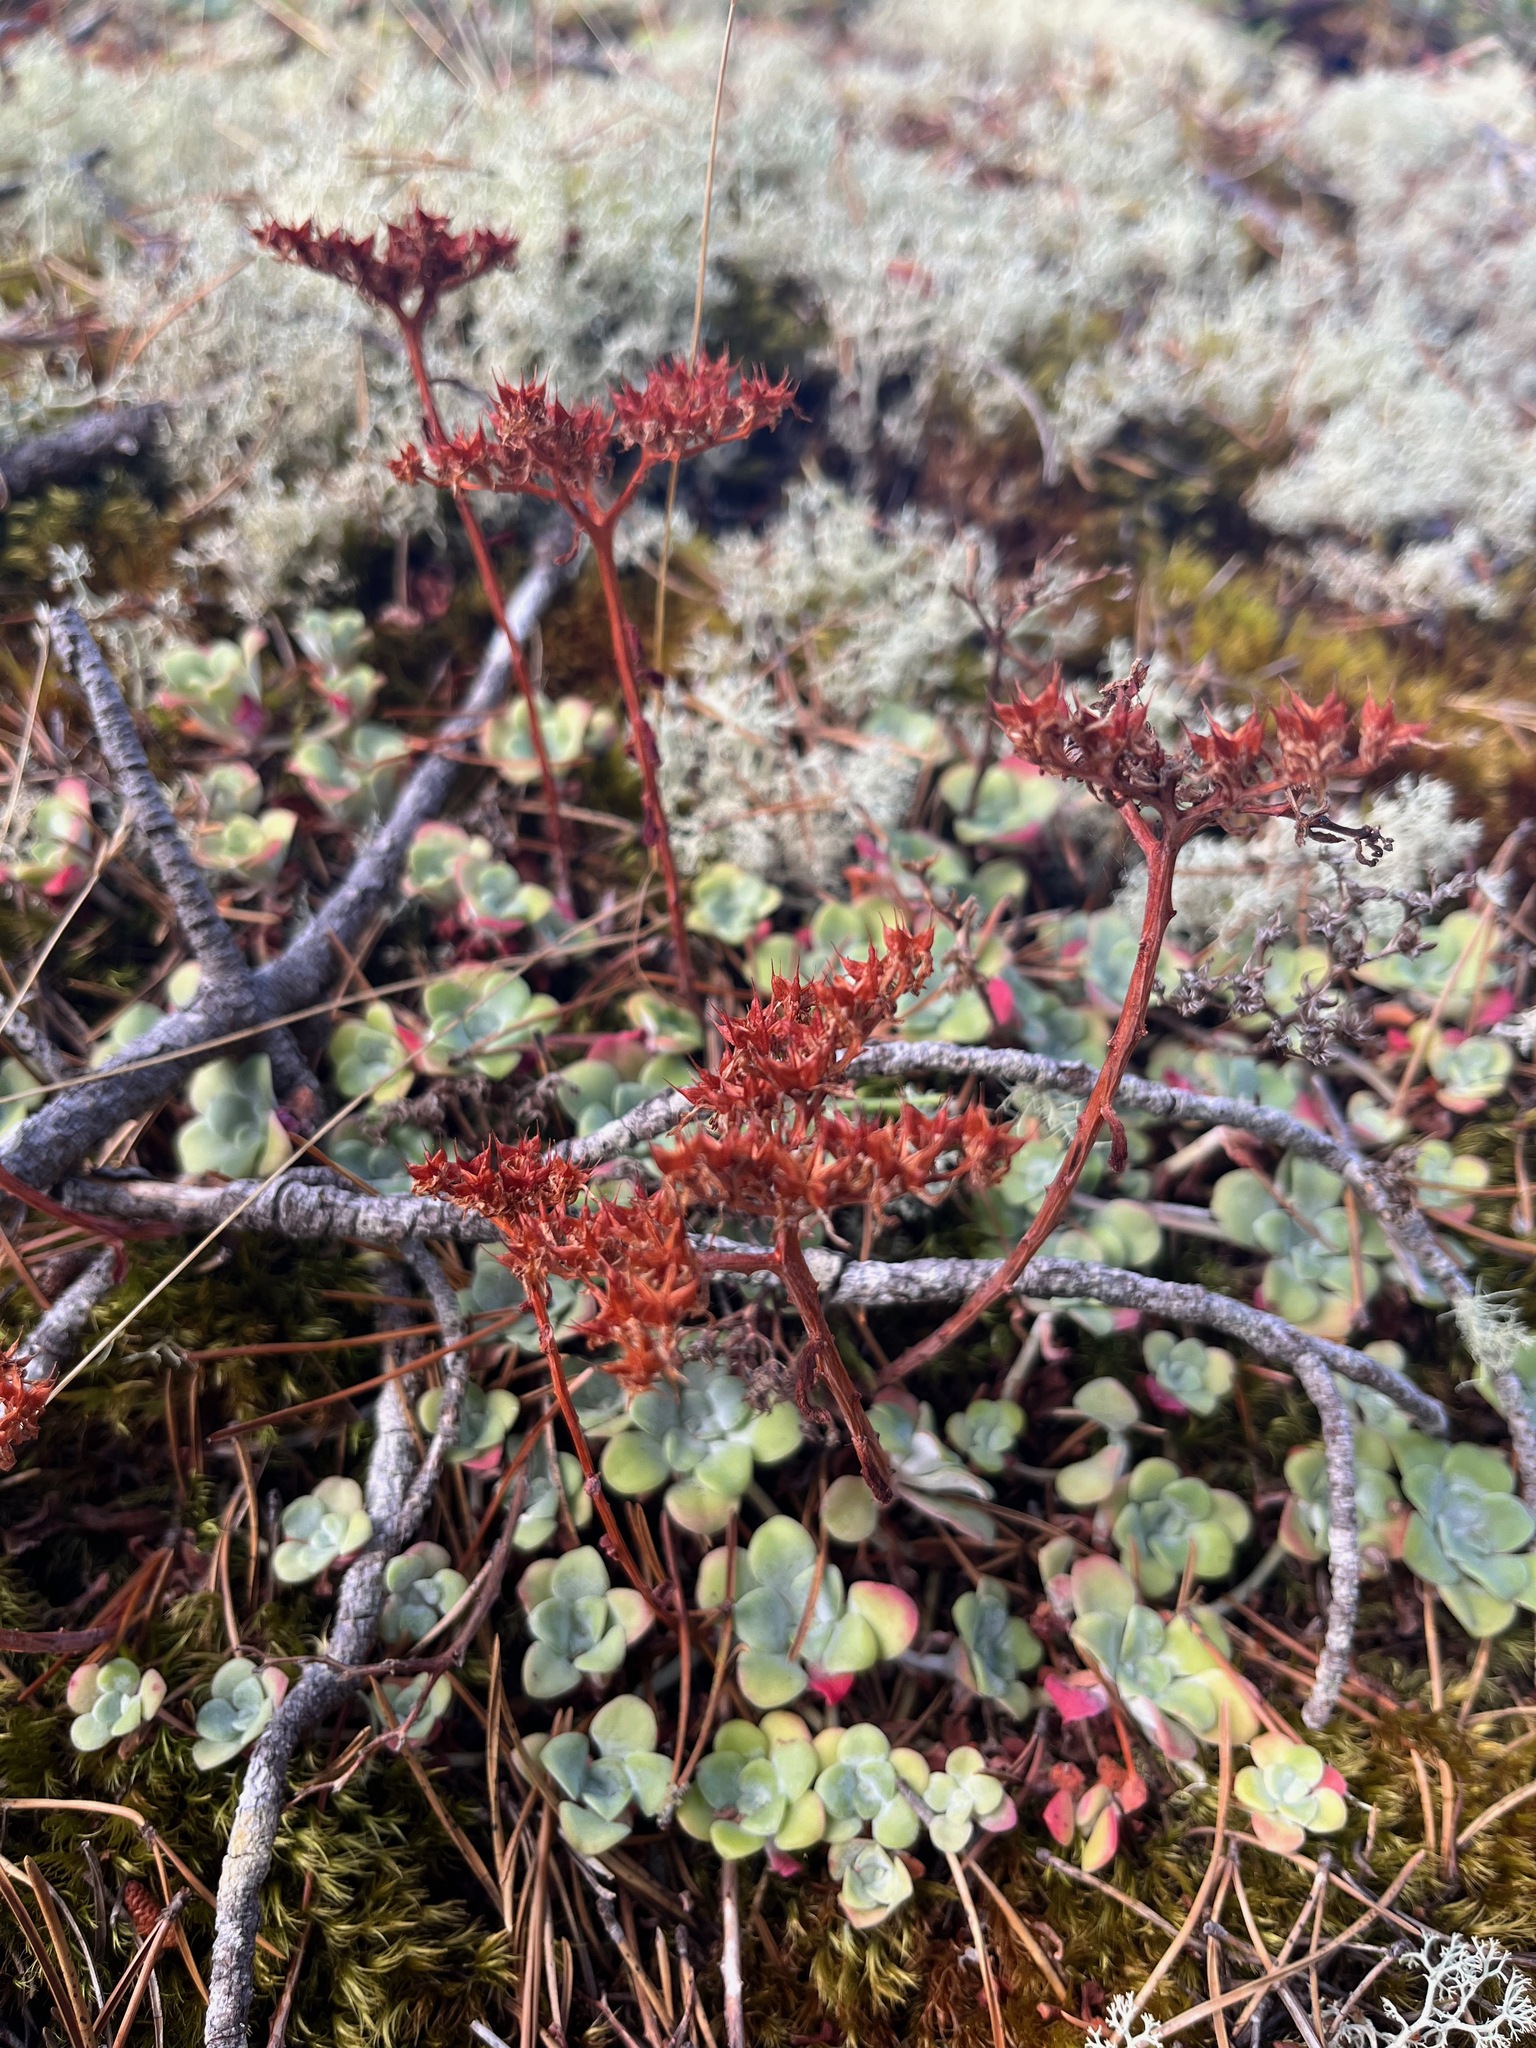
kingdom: Plantae
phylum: Tracheophyta
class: Magnoliopsida
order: Saxifragales
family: Crassulaceae
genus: Sedum
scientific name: Sedum spathulifolium
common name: Colorado stonecrop
